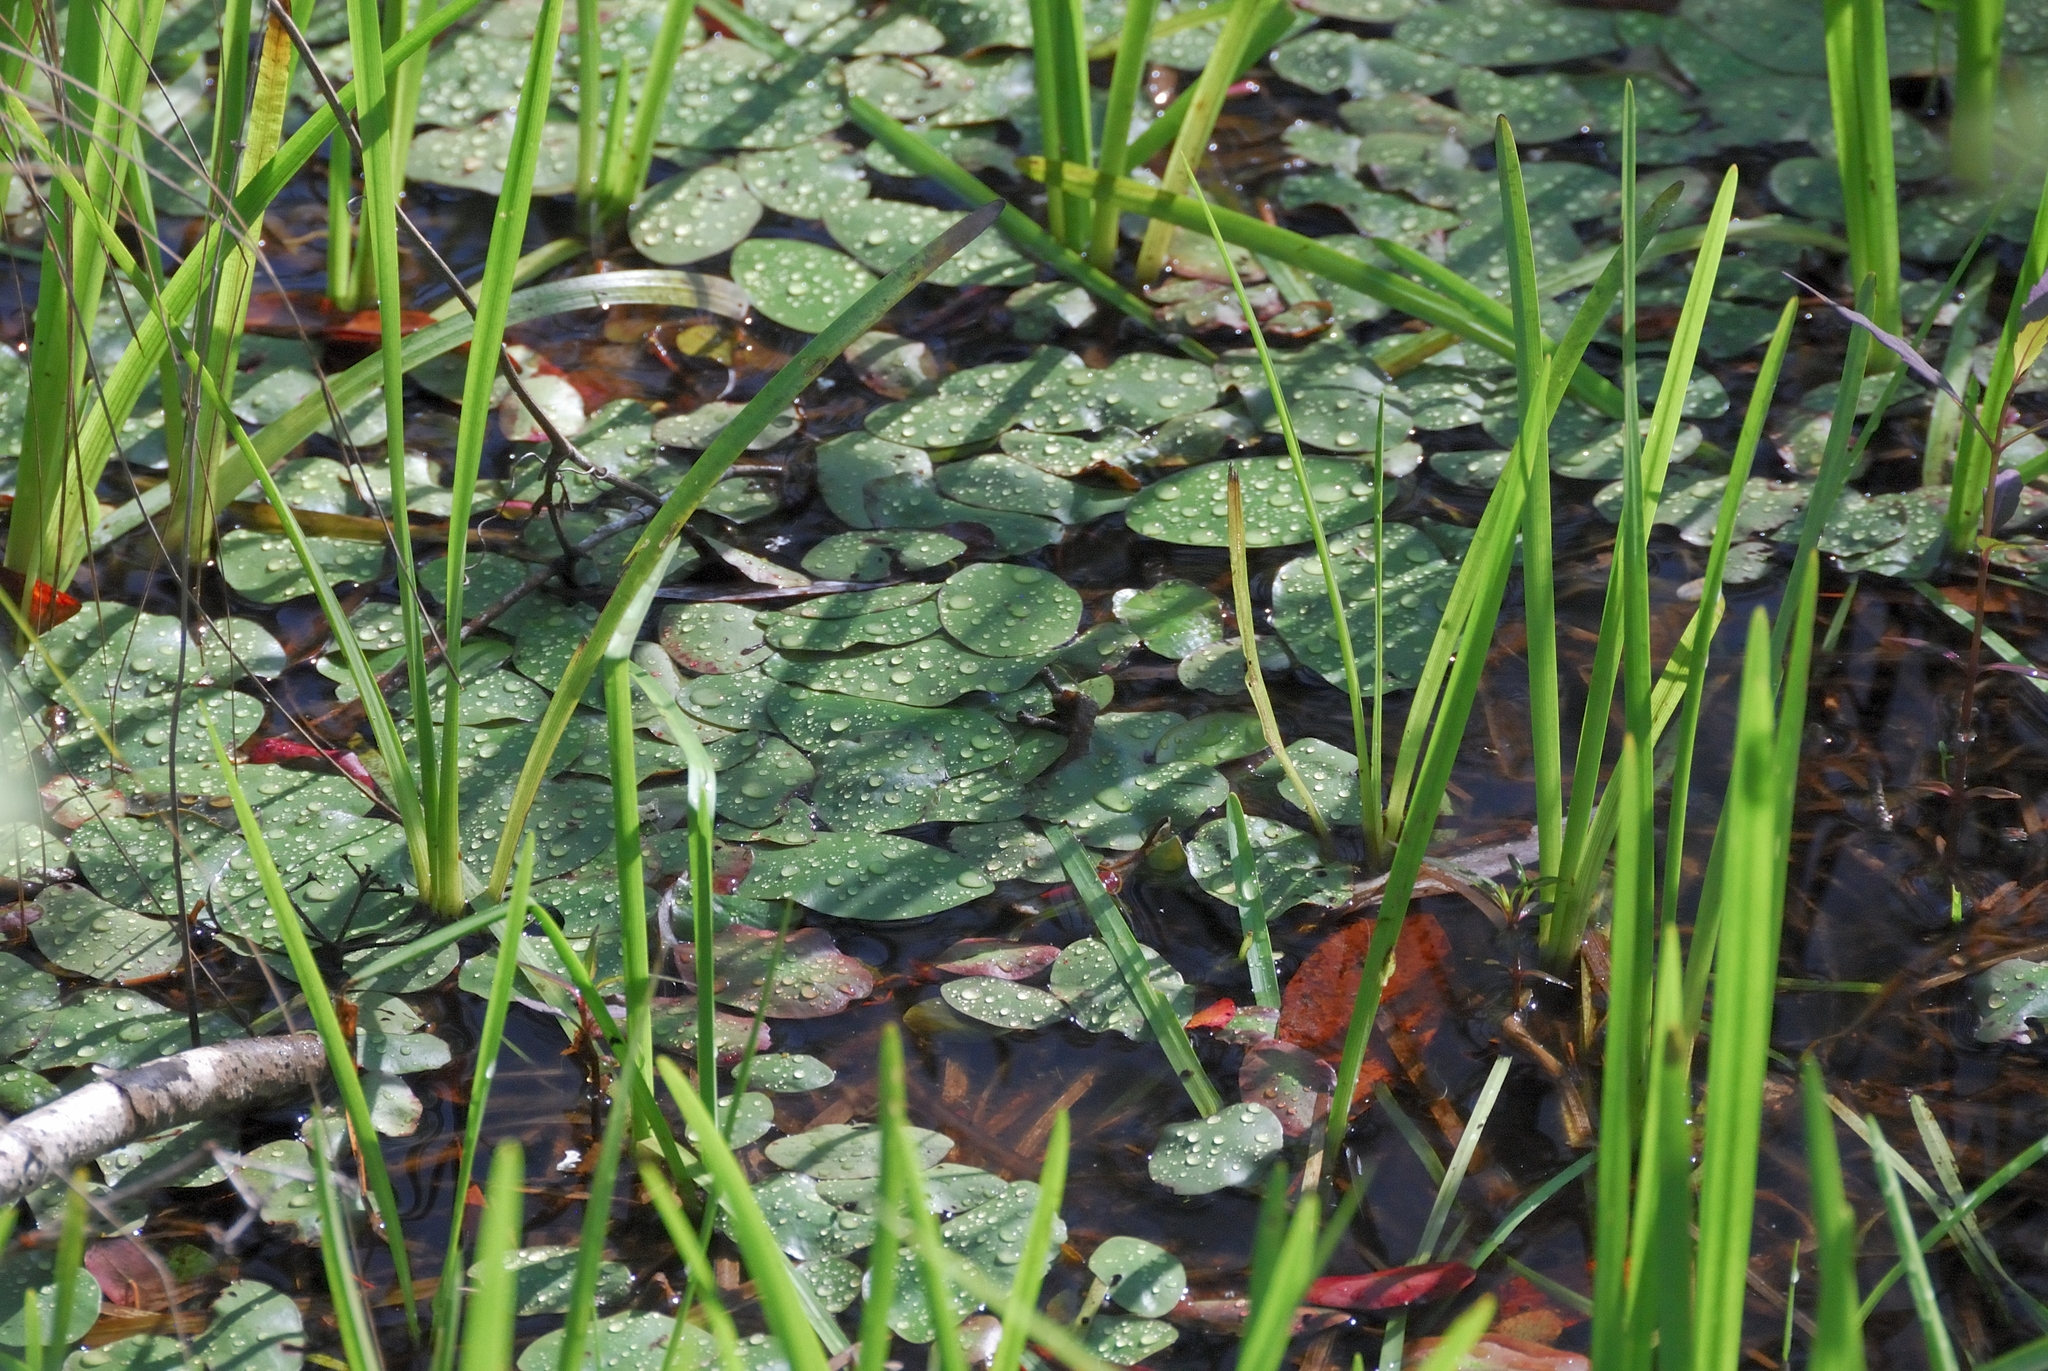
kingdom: Plantae
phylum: Tracheophyta
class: Magnoliopsida
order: Nymphaeales
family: Cabombaceae
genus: Brasenia
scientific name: Brasenia schreberi
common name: Water-shield
